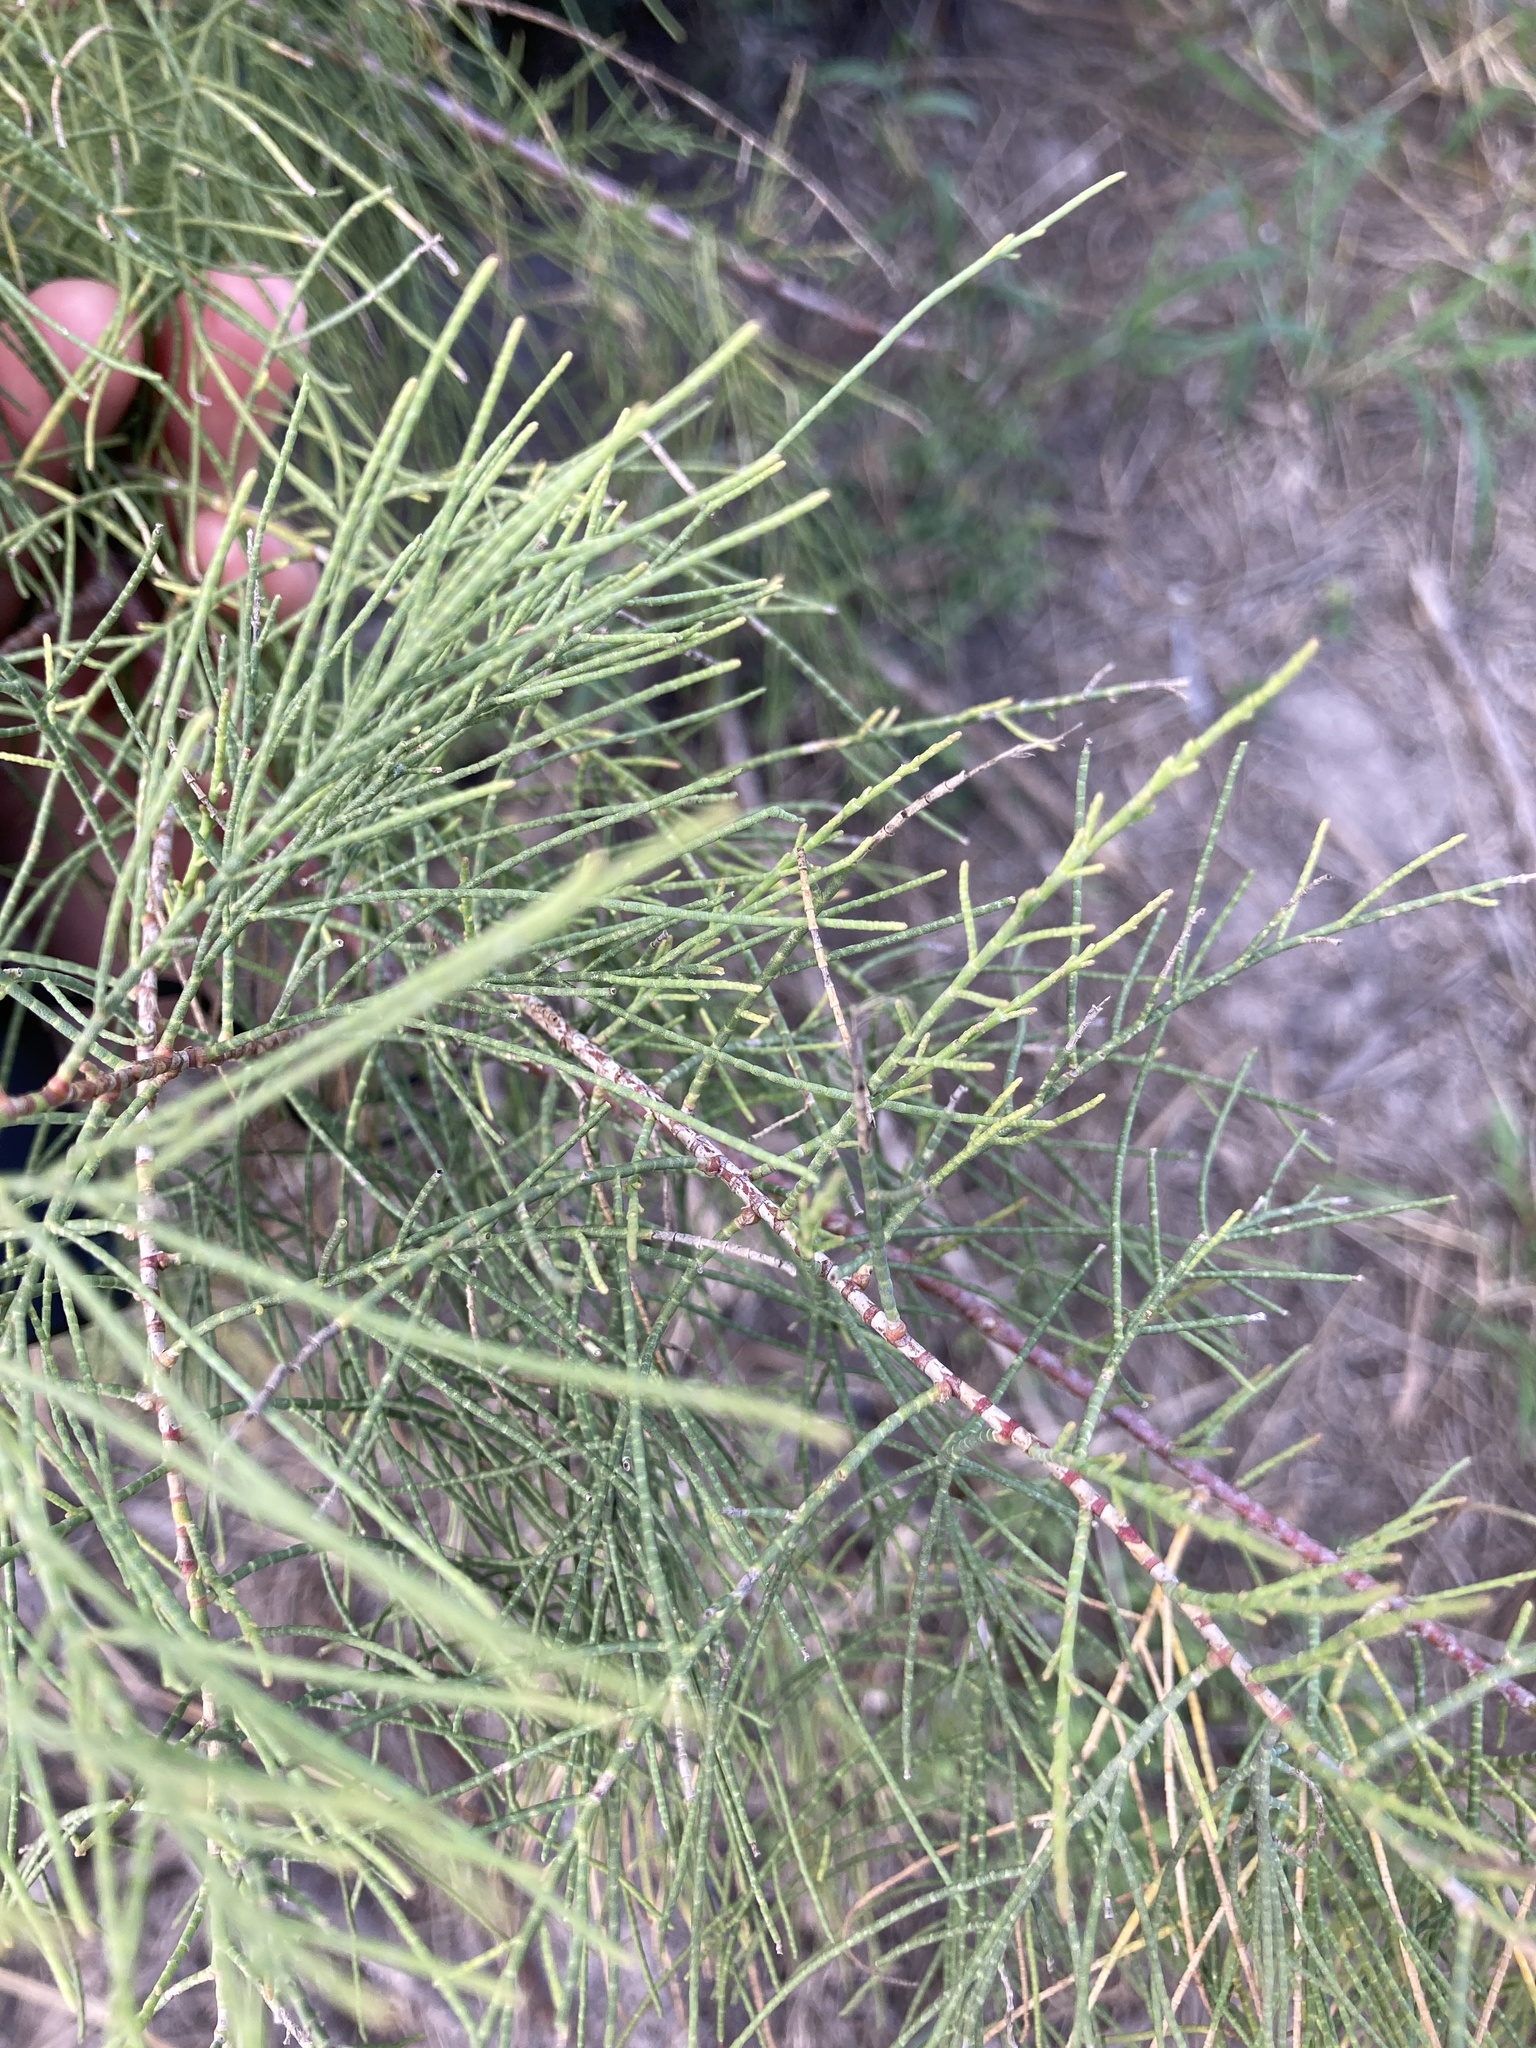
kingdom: Plantae
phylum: Tracheophyta
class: Magnoliopsida
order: Caryophyllales
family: Tamaricaceae
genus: Tamarix
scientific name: Tamarix aphylla
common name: Athel tamarisk
